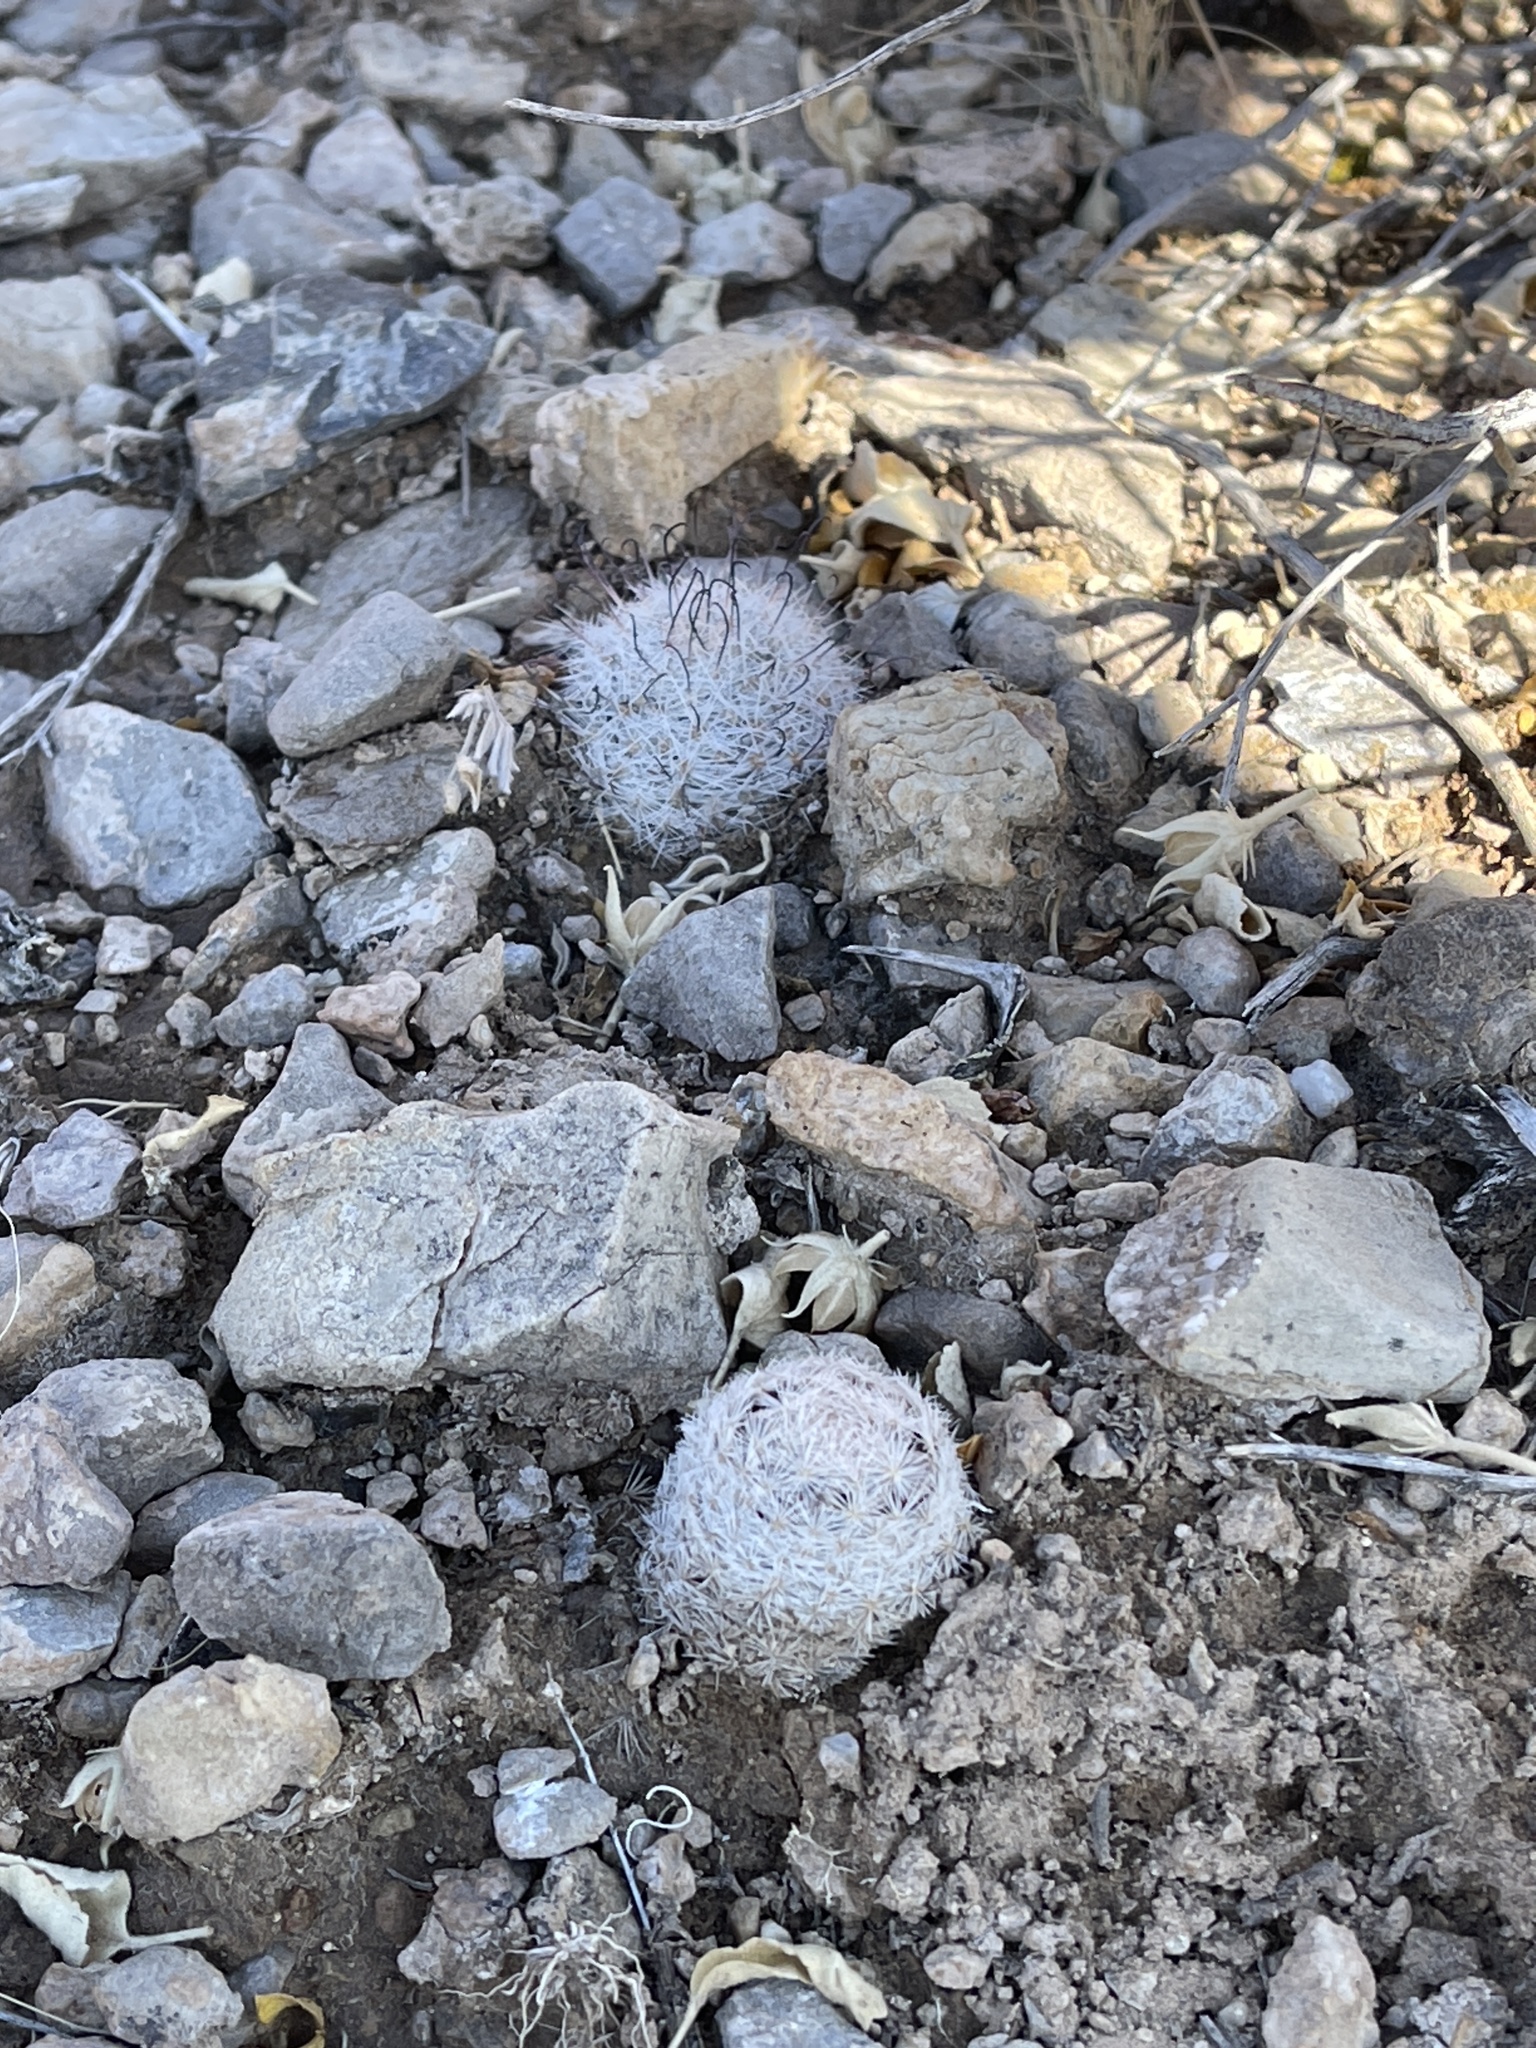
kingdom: Plantae
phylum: Tracheophyta
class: Magnoliopsida
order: Caryophyllales
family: Cactaceae
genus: Cochemiea
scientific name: Cochemiea grahamii
